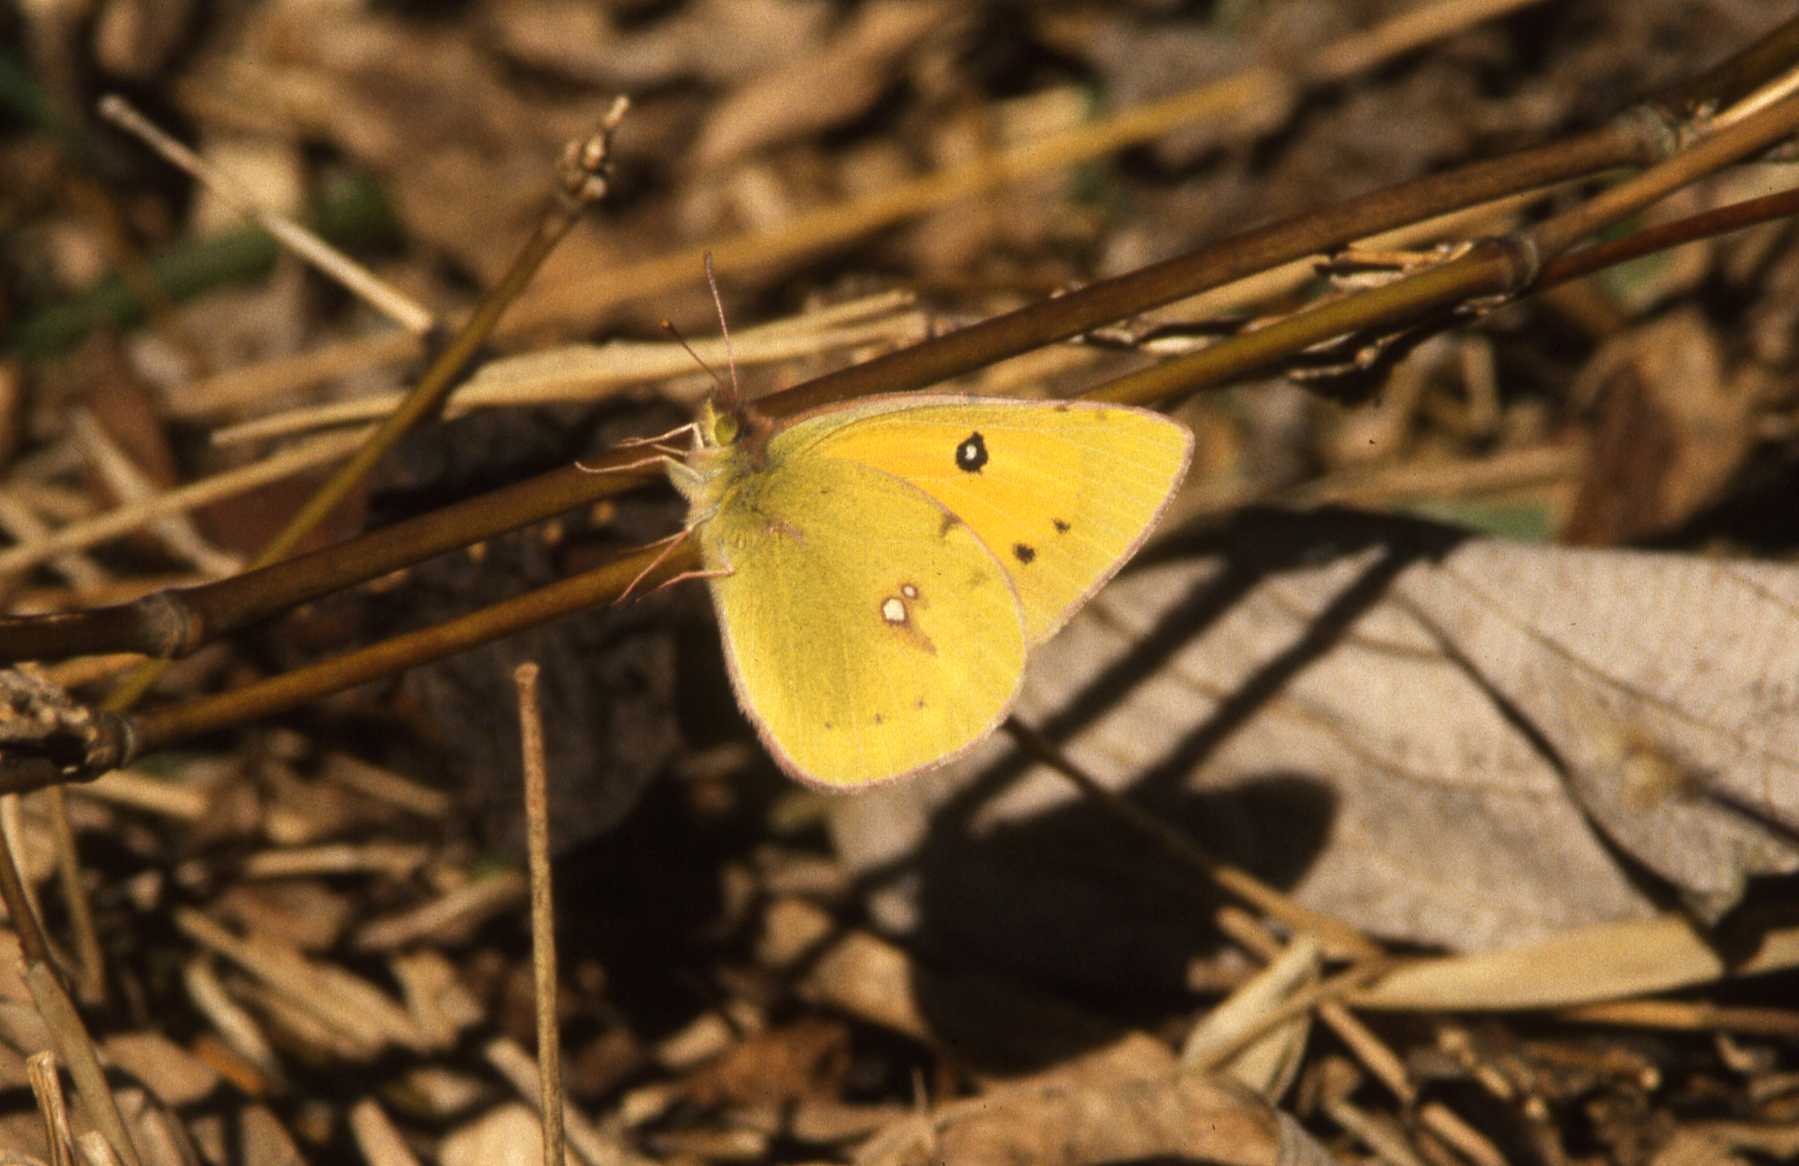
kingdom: Animalia
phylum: Arthropoda
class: Insecta
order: Lepidoptera
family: Pieridae
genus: Colias
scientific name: Colias fieldii
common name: Dark clouded yellow
